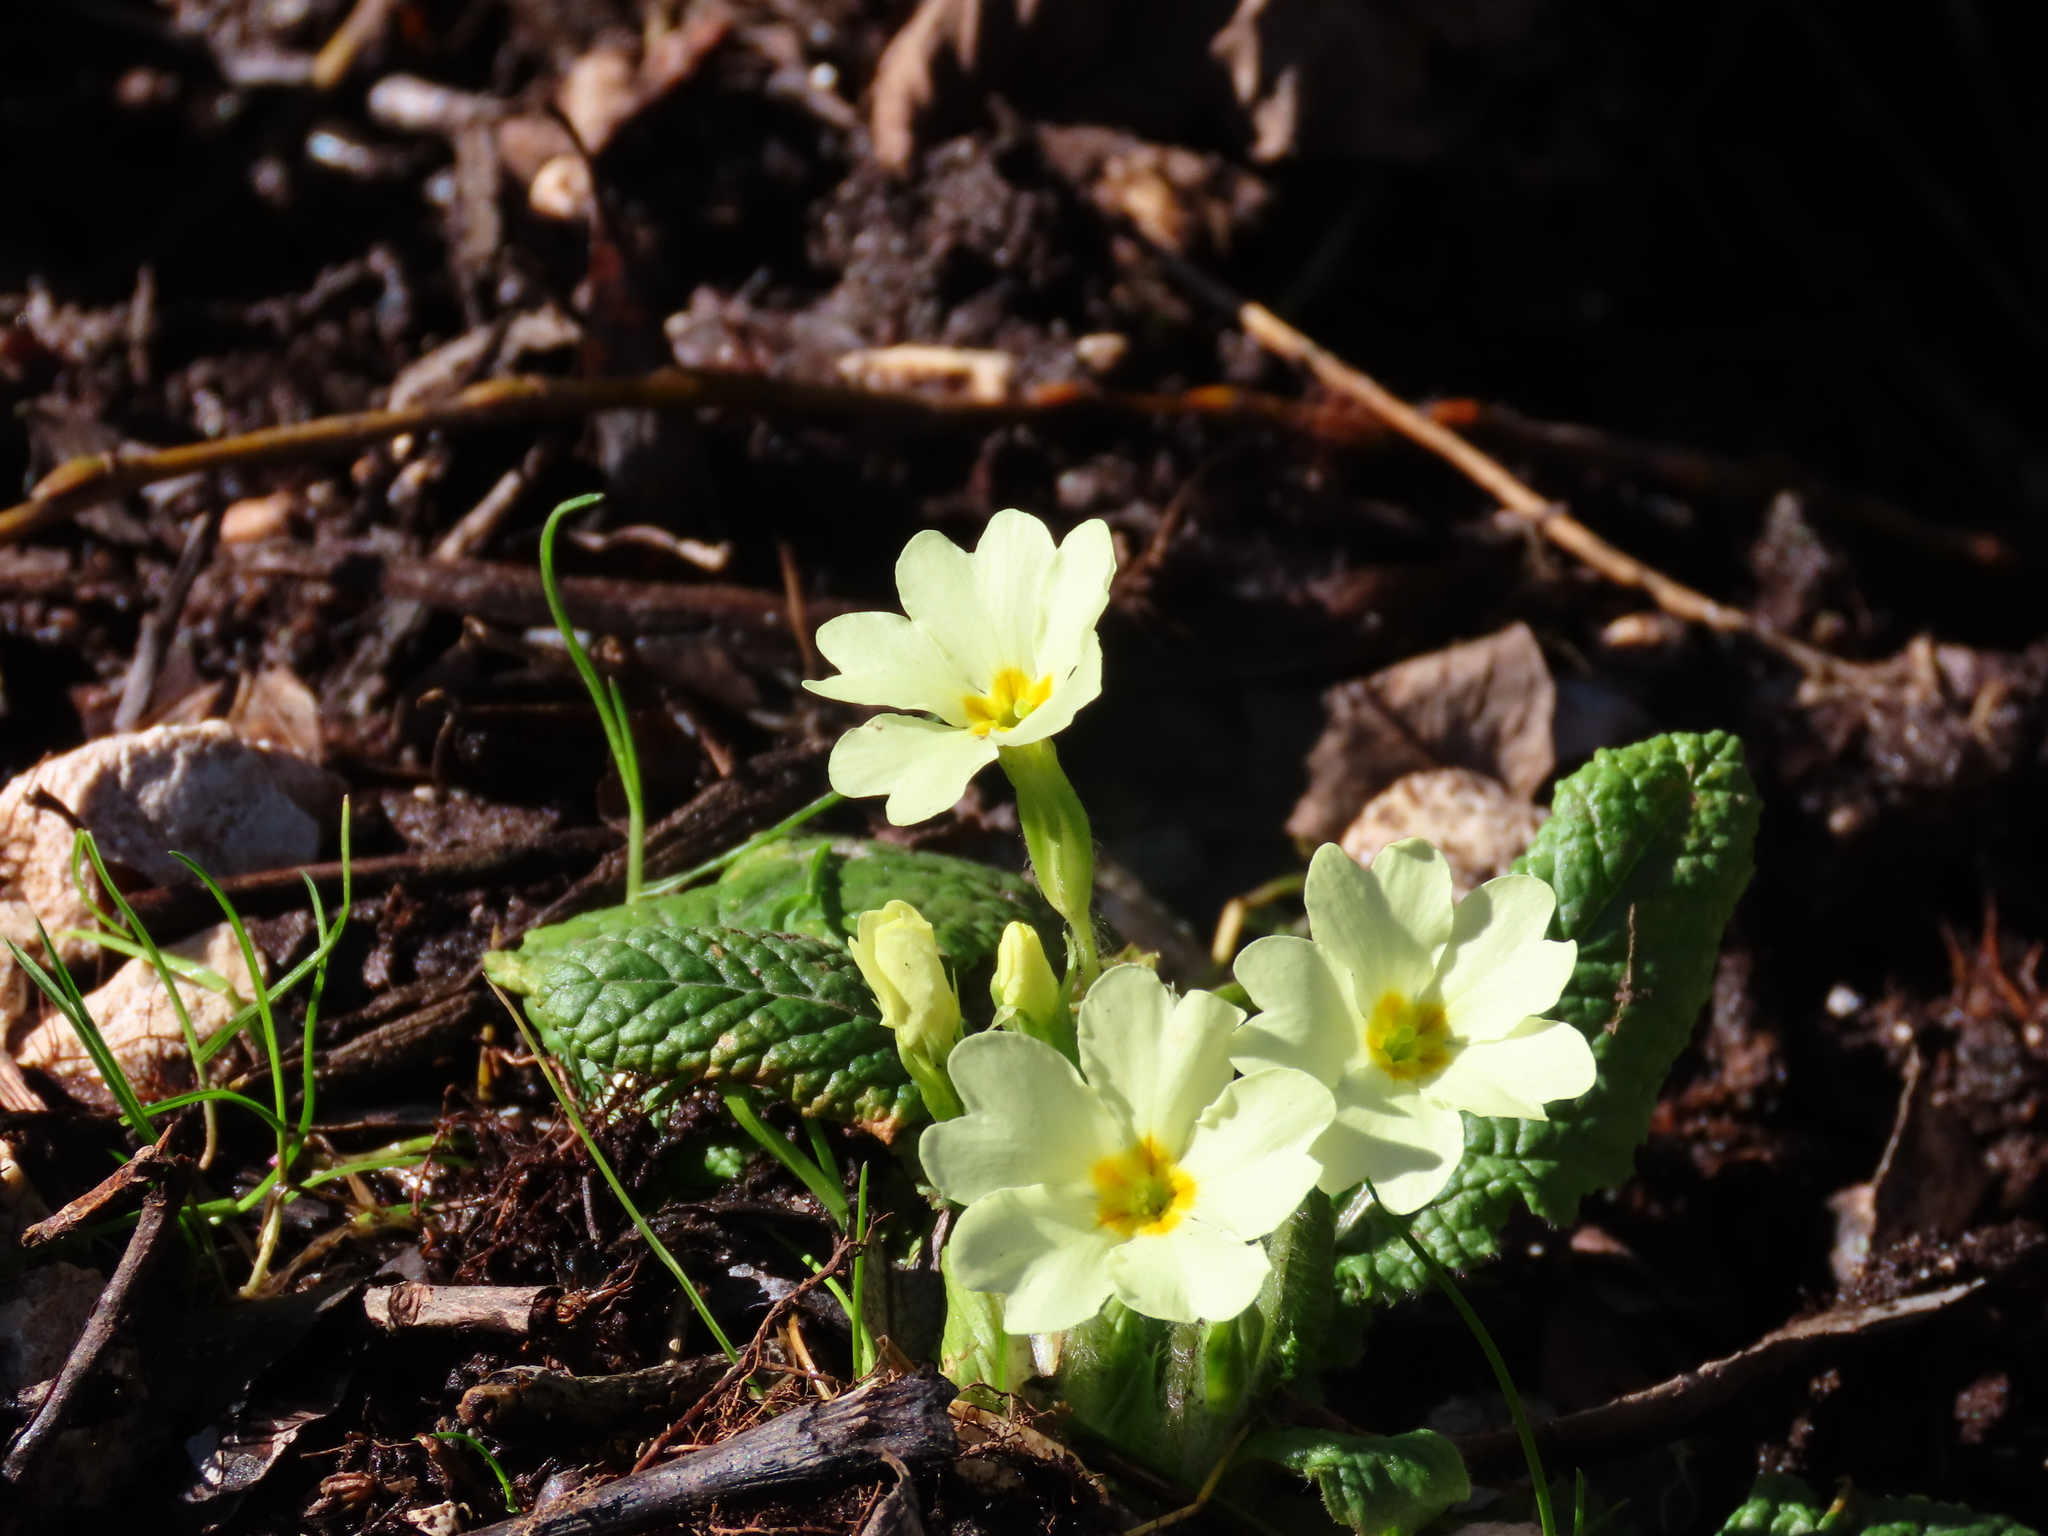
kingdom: Plantae
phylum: Tracheophyta
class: Magnoliopsida
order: Ericales
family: Primulaceae
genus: Primula
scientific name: Primula vulgaris
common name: Primrose
